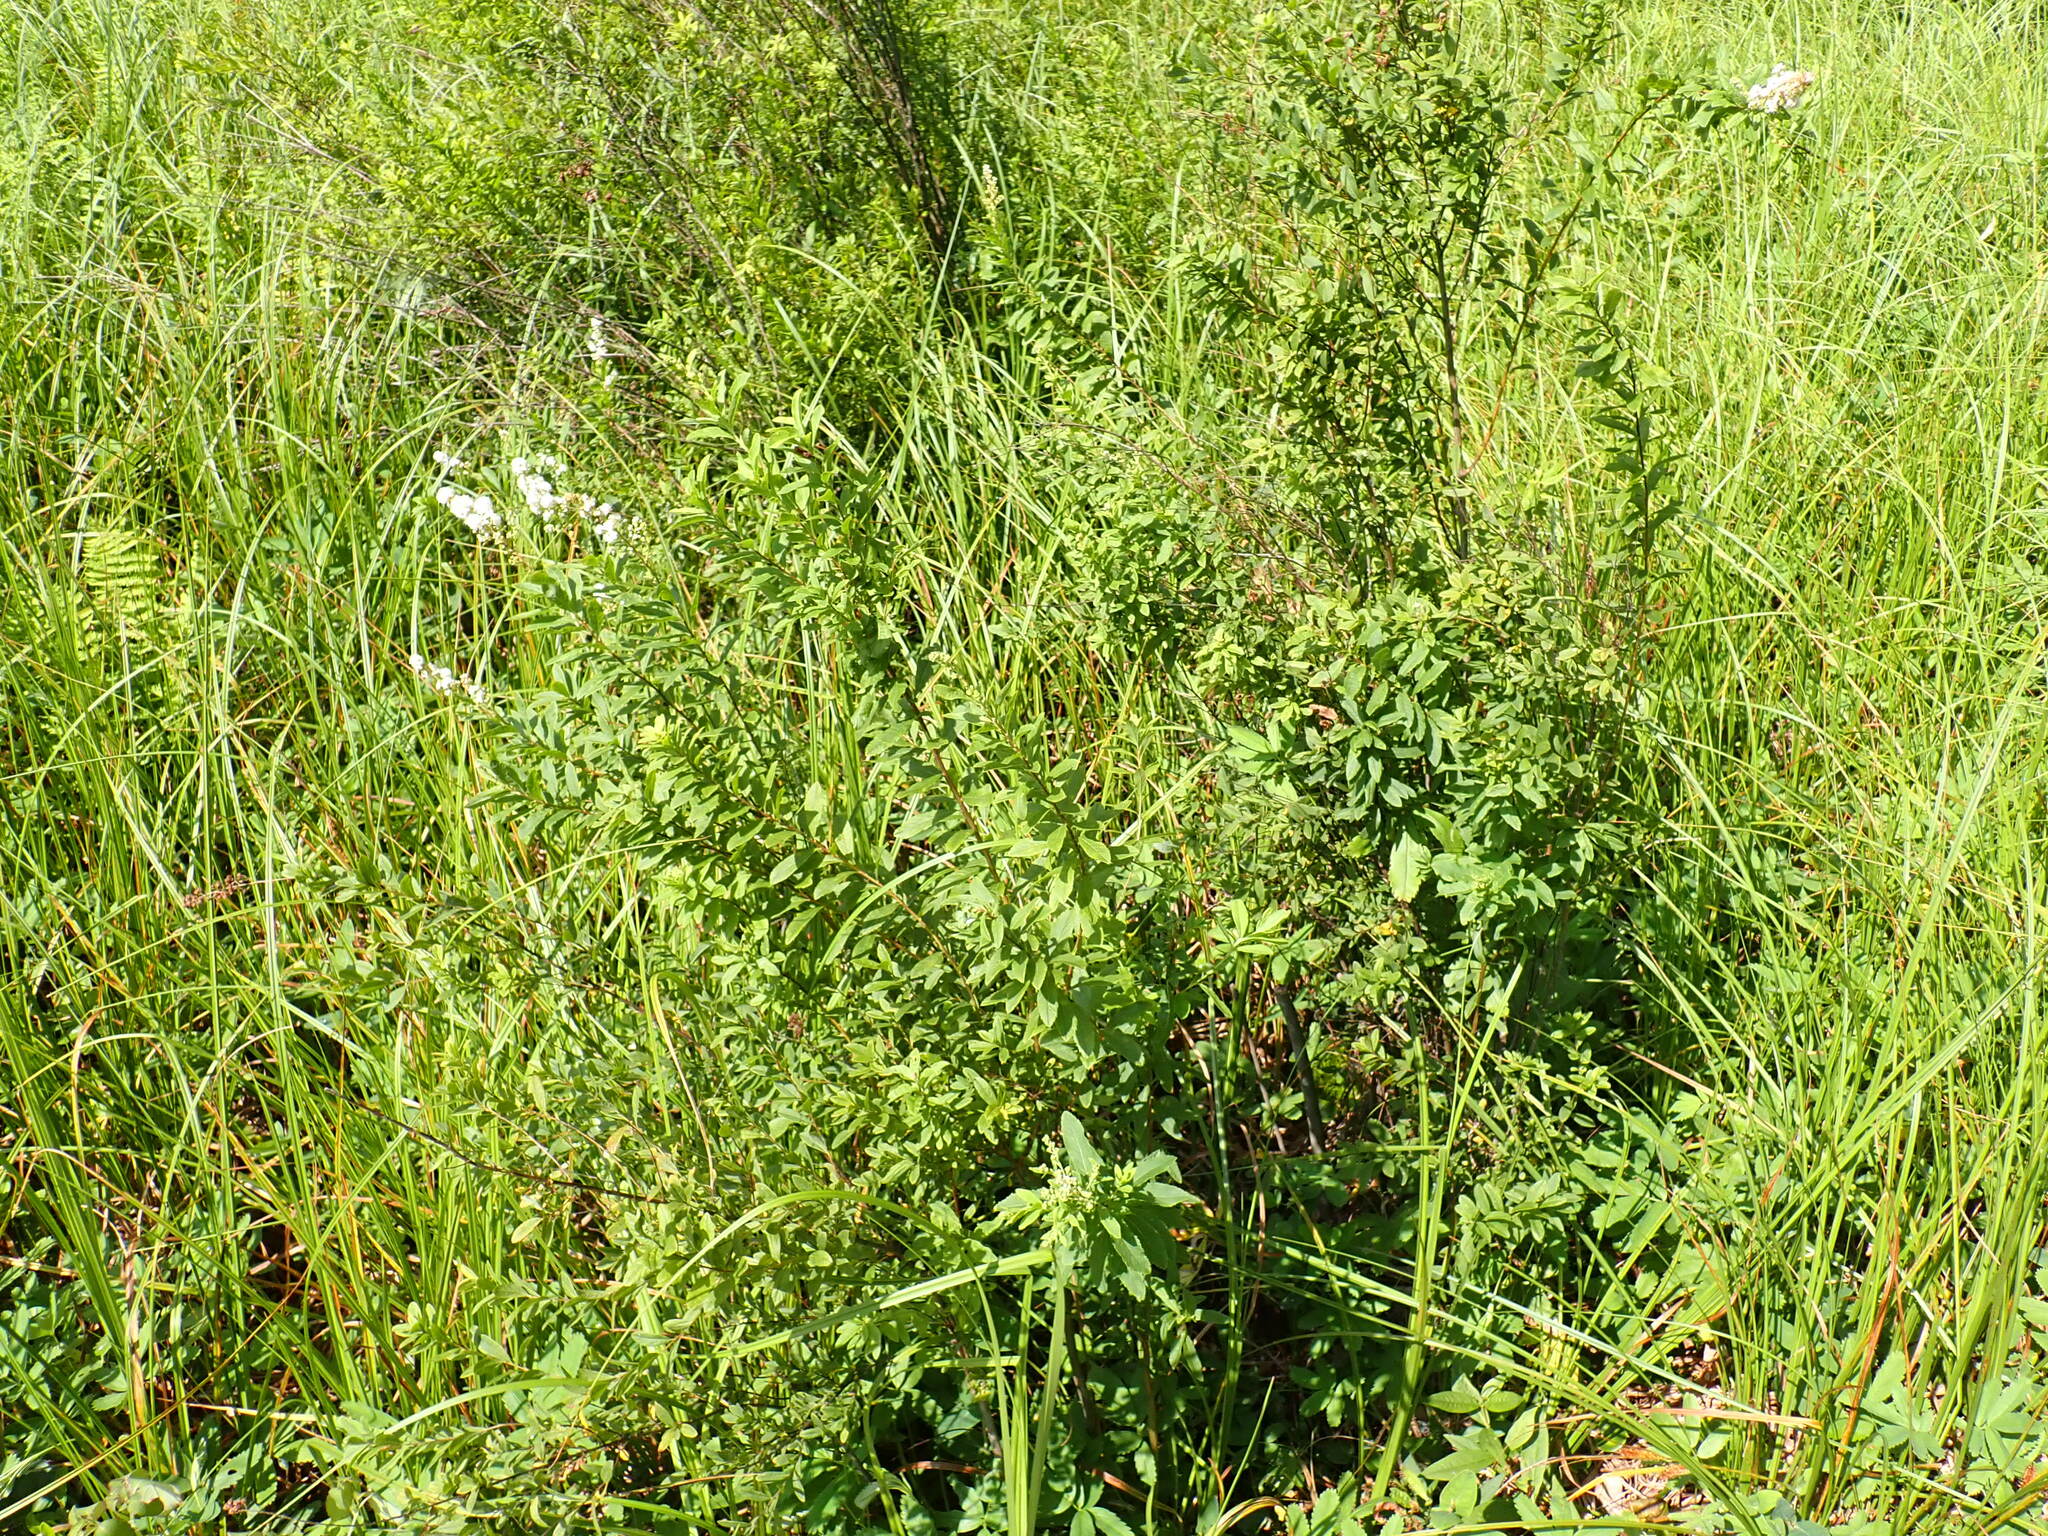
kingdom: Plantae
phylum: Tracheophyta
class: Magnoliopsida
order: Rosales
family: Rosaceae
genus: Spiraea
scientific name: Spiraea alba
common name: Pale bridewort
